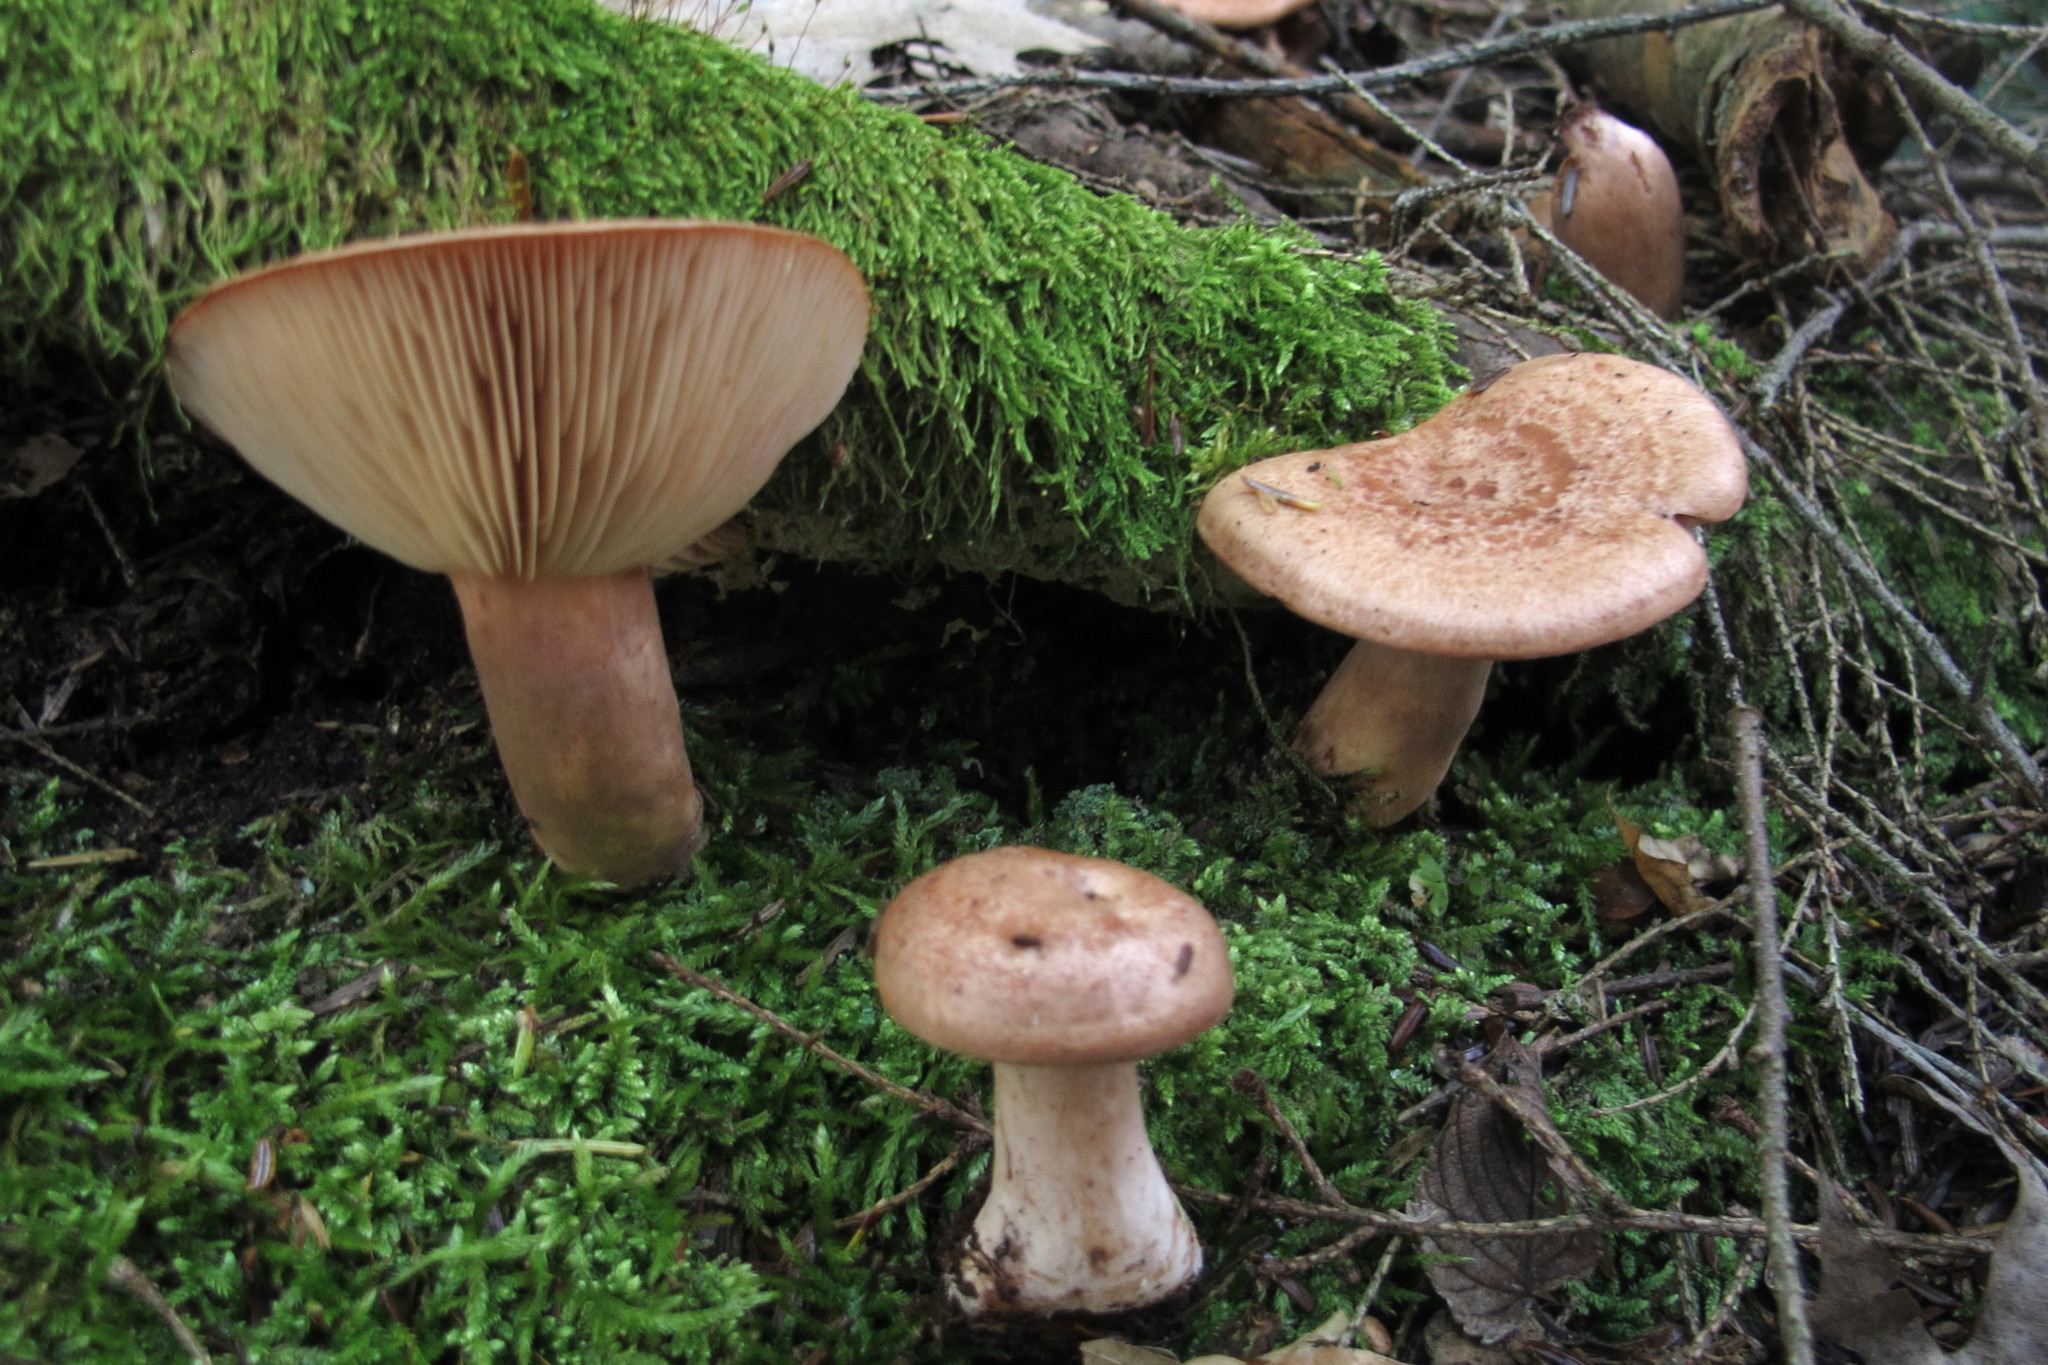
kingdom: Fungi
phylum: Basidiomycota
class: Agaricomycetes
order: Russulales
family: Russulaceae
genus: Lactarius
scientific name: Lactarius vinaceorufescens
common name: Yellow-latex milkcap
